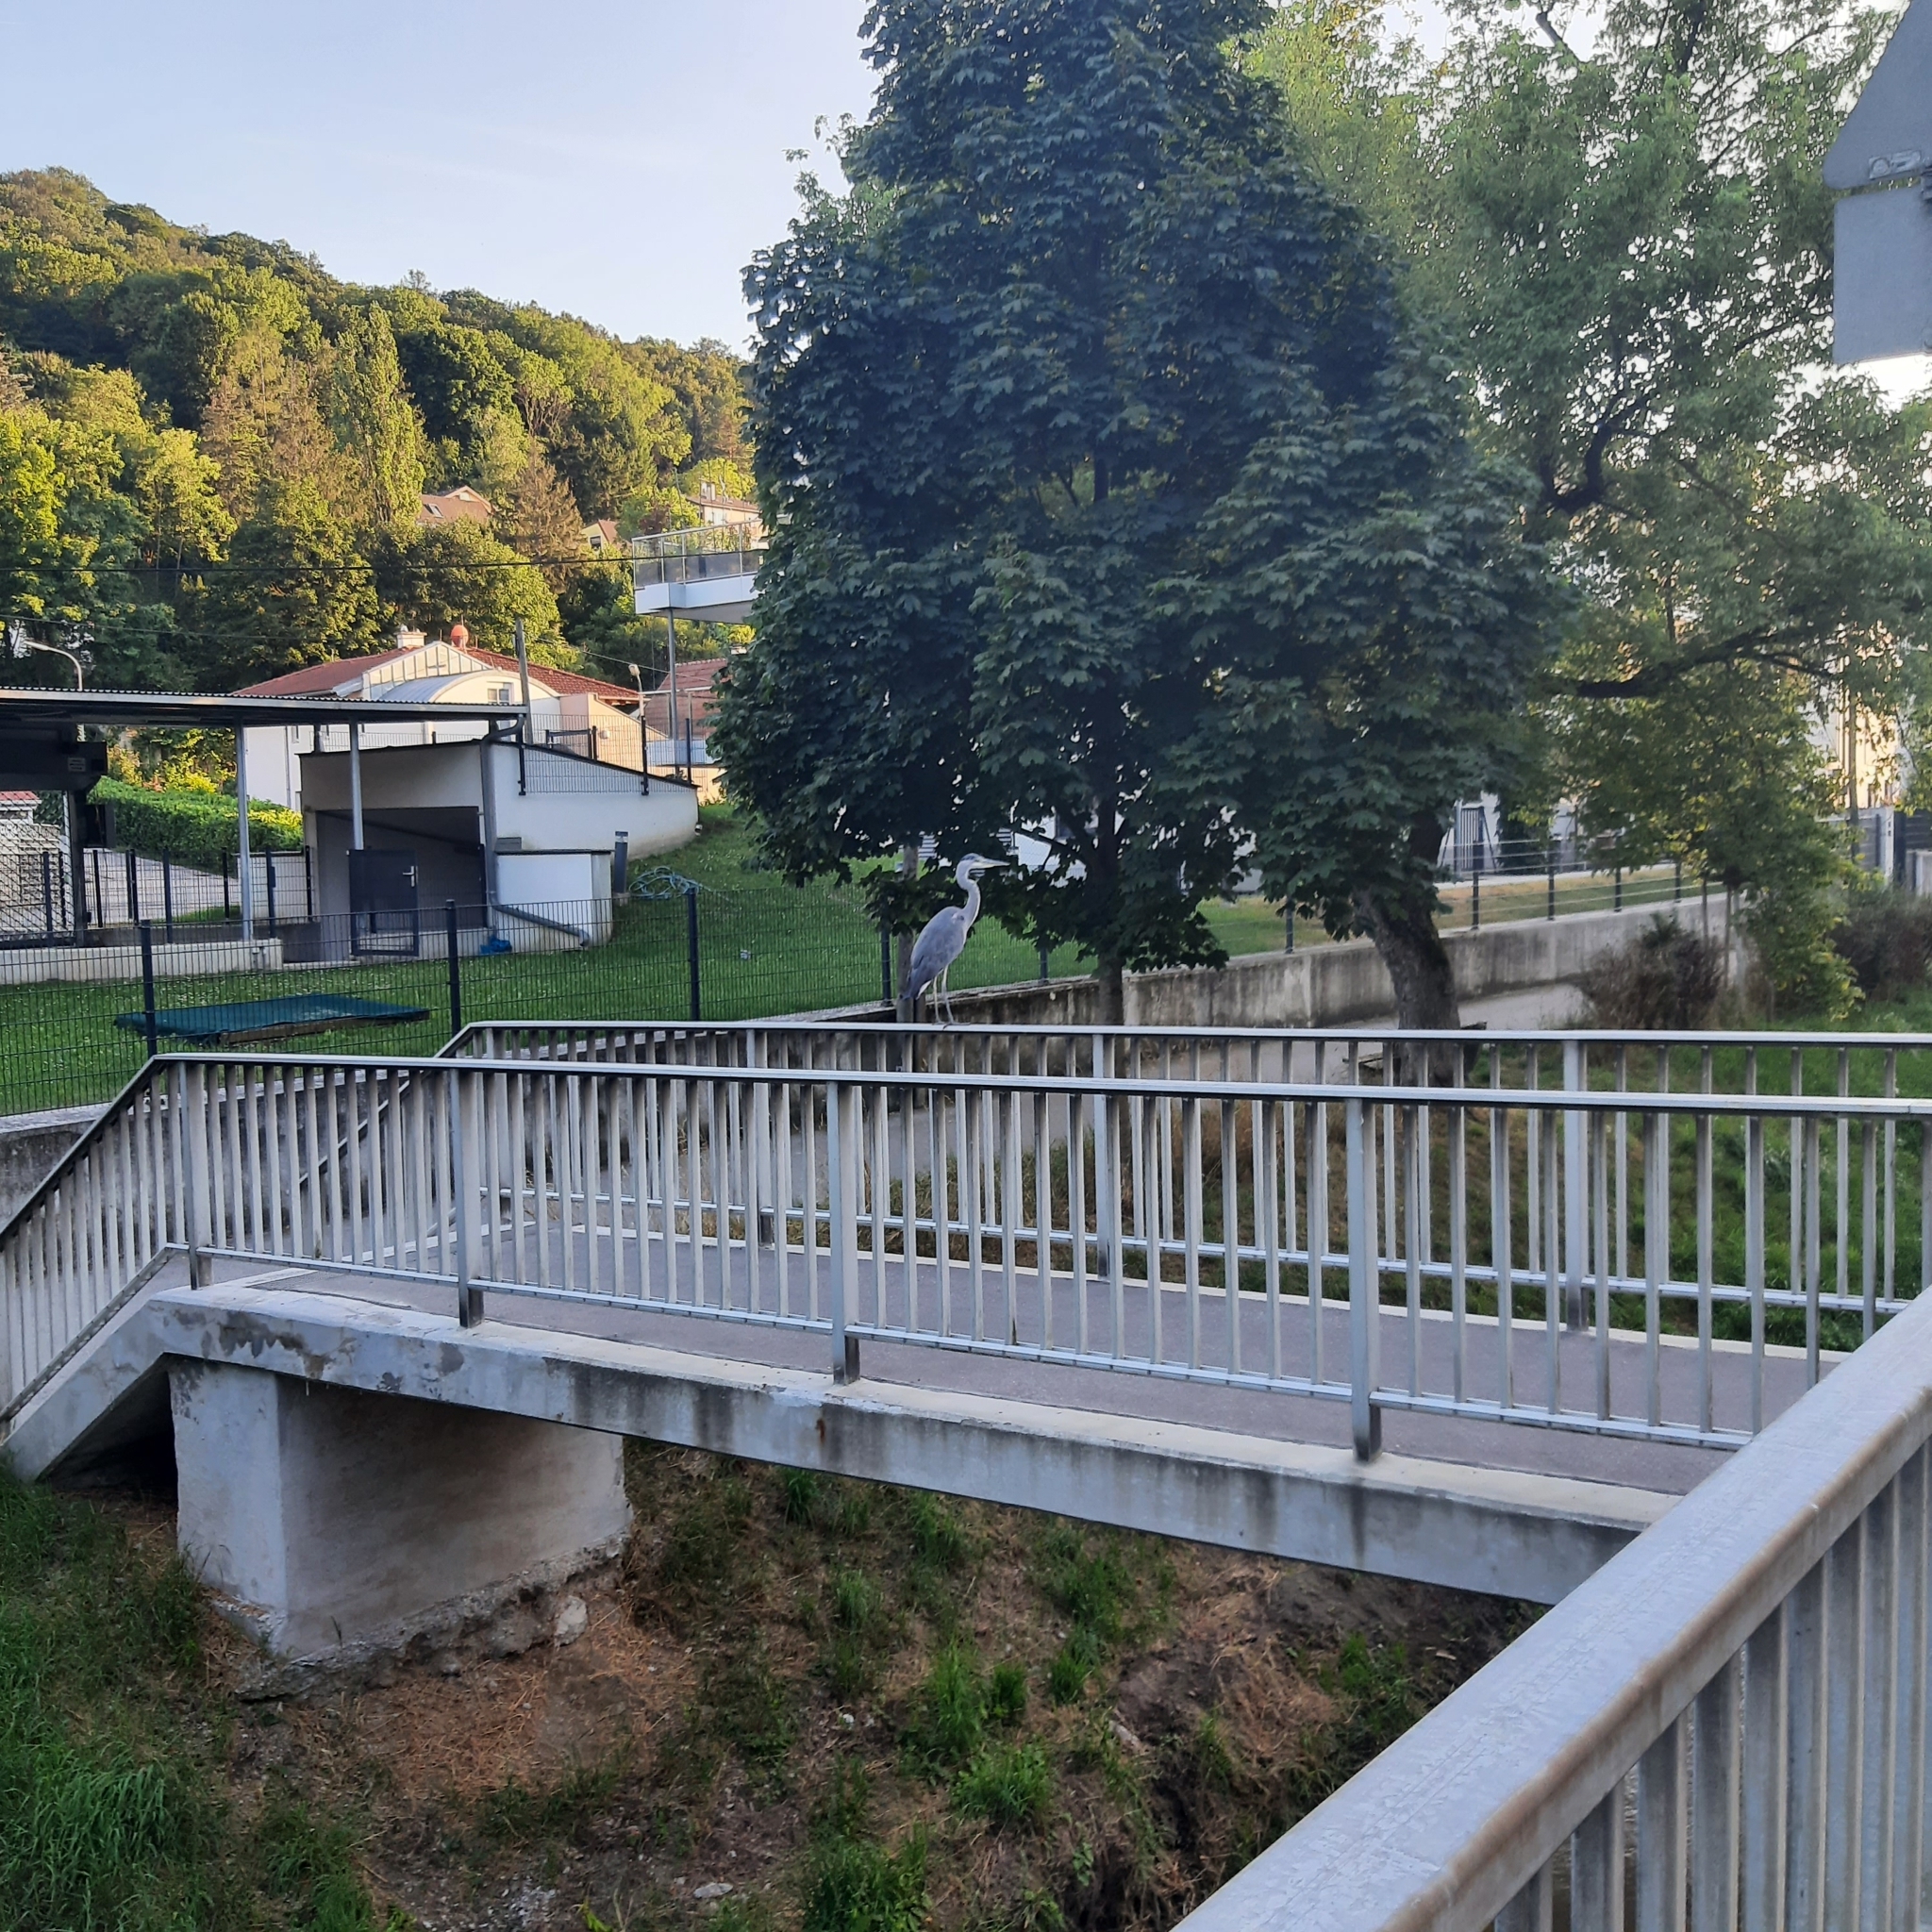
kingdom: Animalia
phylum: Chordata
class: Aves
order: Pelecaniformes
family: Ardeidae
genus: Ardea
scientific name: Ardea cinerea
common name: Grey heron
